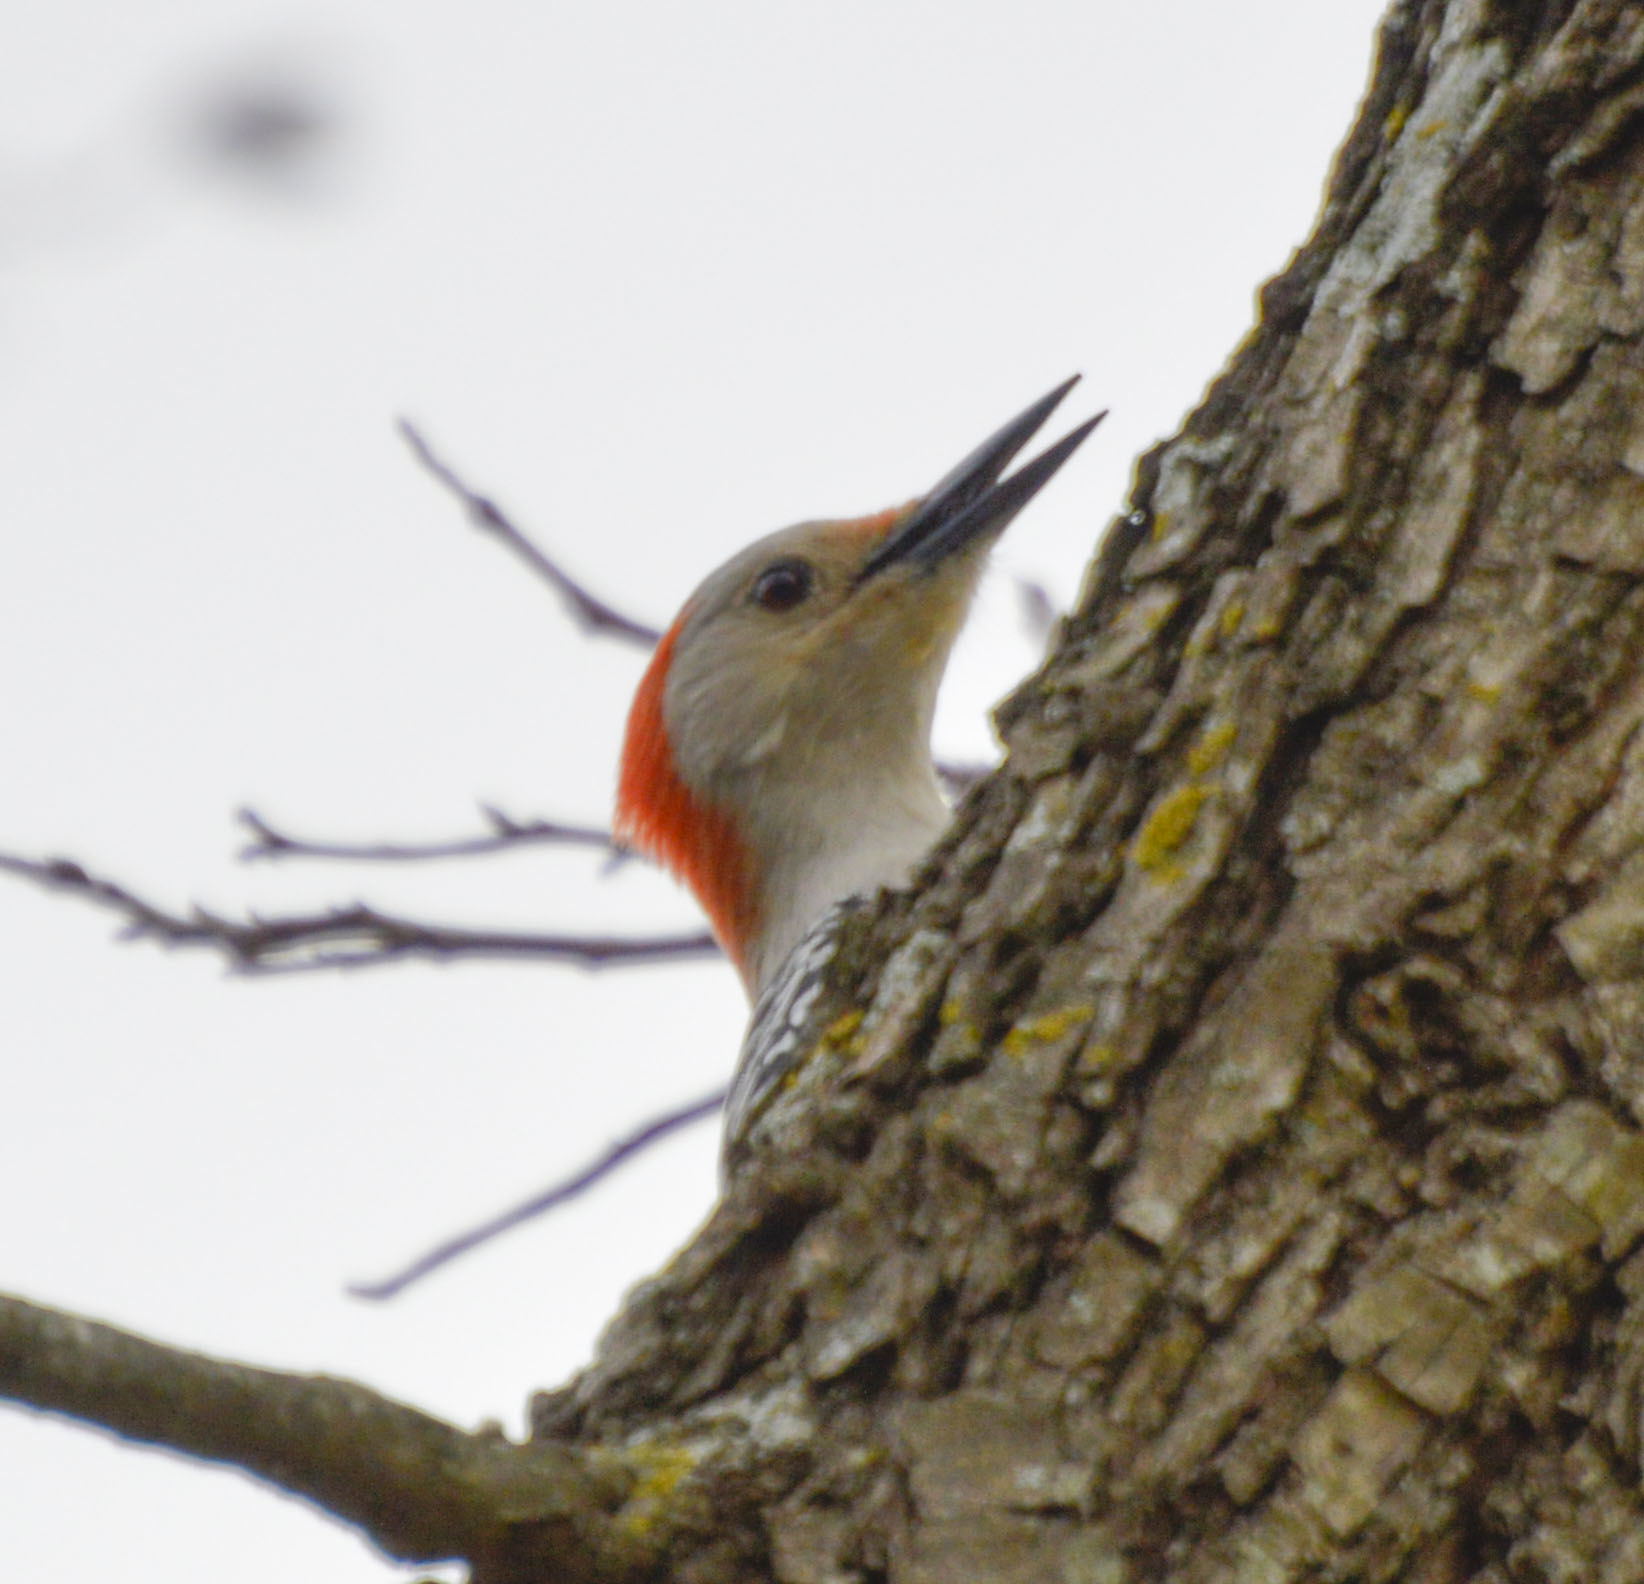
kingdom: Animalia
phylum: Chordata
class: Aves
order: Piciformes
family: Picidae
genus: Melanerpes
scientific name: Melanerpes carolinus
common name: Red-bellied woodpecker
